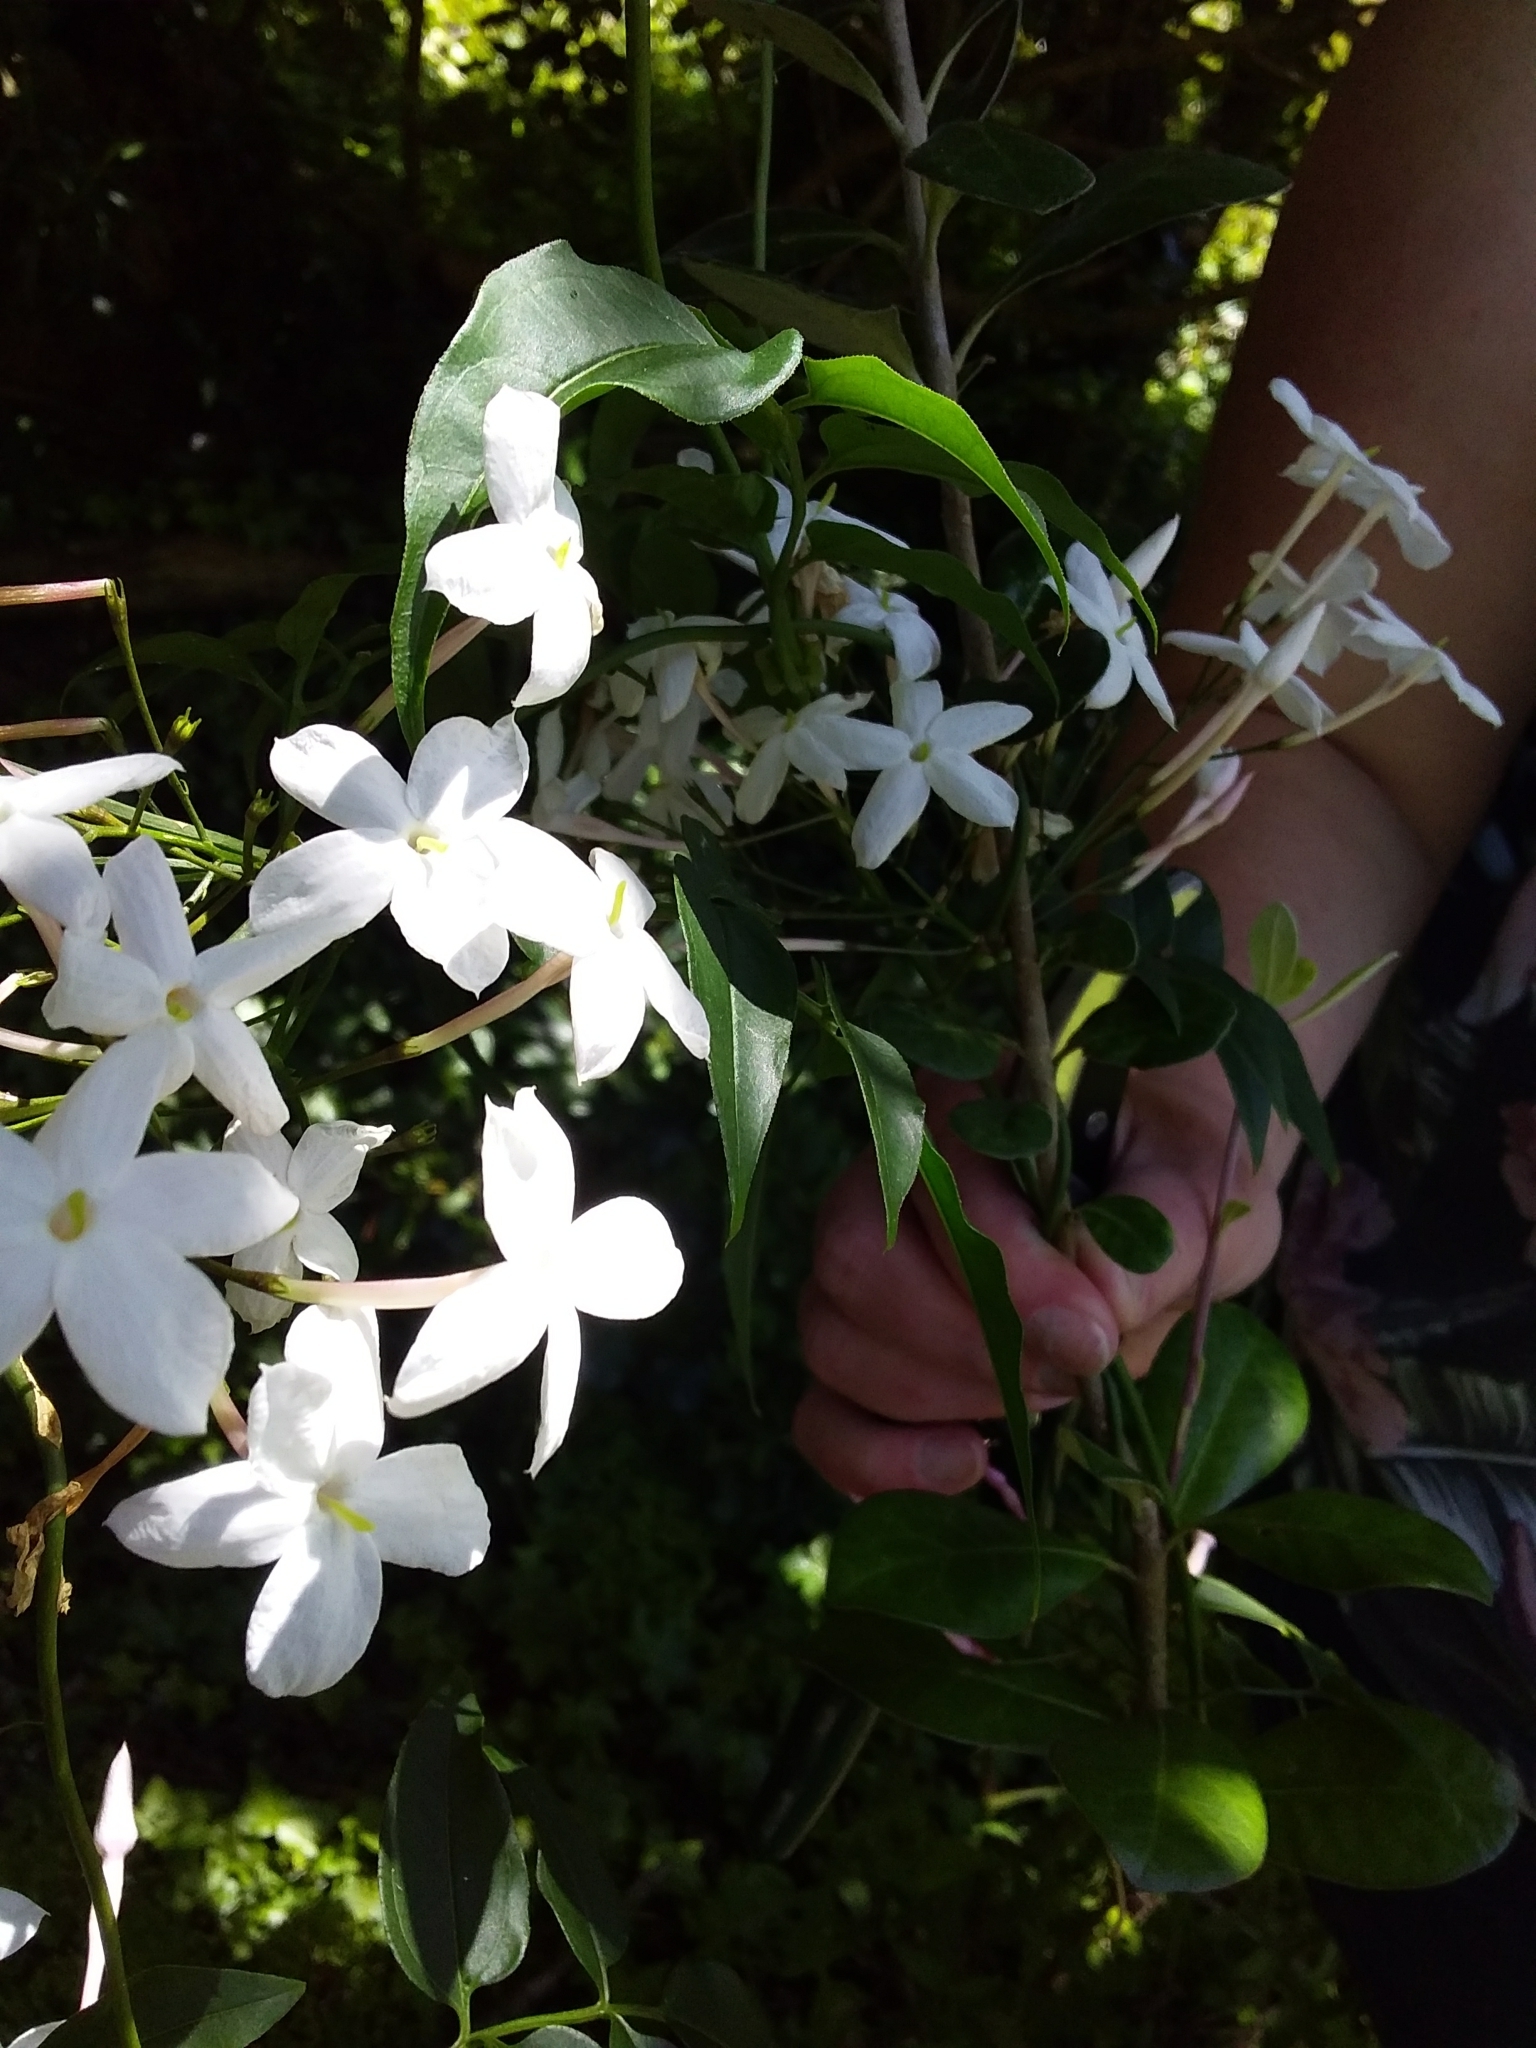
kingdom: Plantae
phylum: Tracheophyta
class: Magnoliopsida
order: Lamiales
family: Oleaceae
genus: Jasminum
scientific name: Jasminum polyanthum
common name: Pink jasmine
